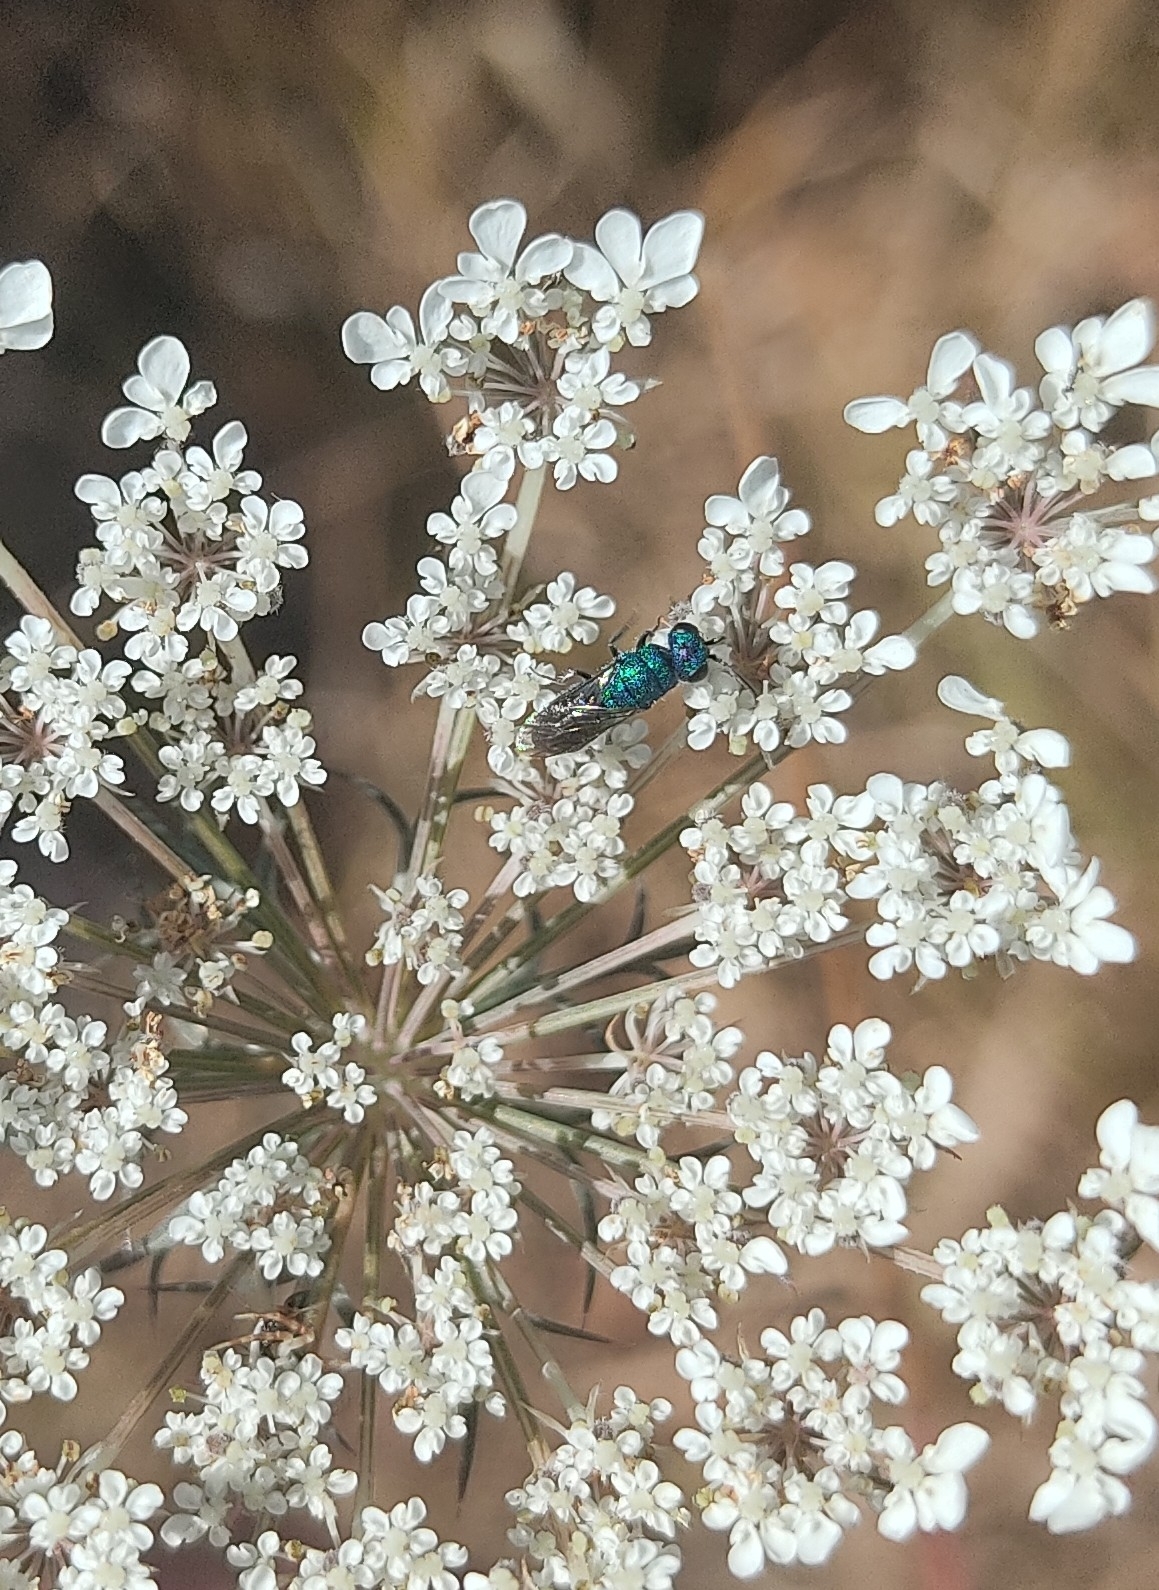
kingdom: Animalia
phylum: Arthropoda
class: Insecta
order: Hymenoptera
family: Pompilidae
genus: Pepsis
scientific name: Pepsis cyanea
